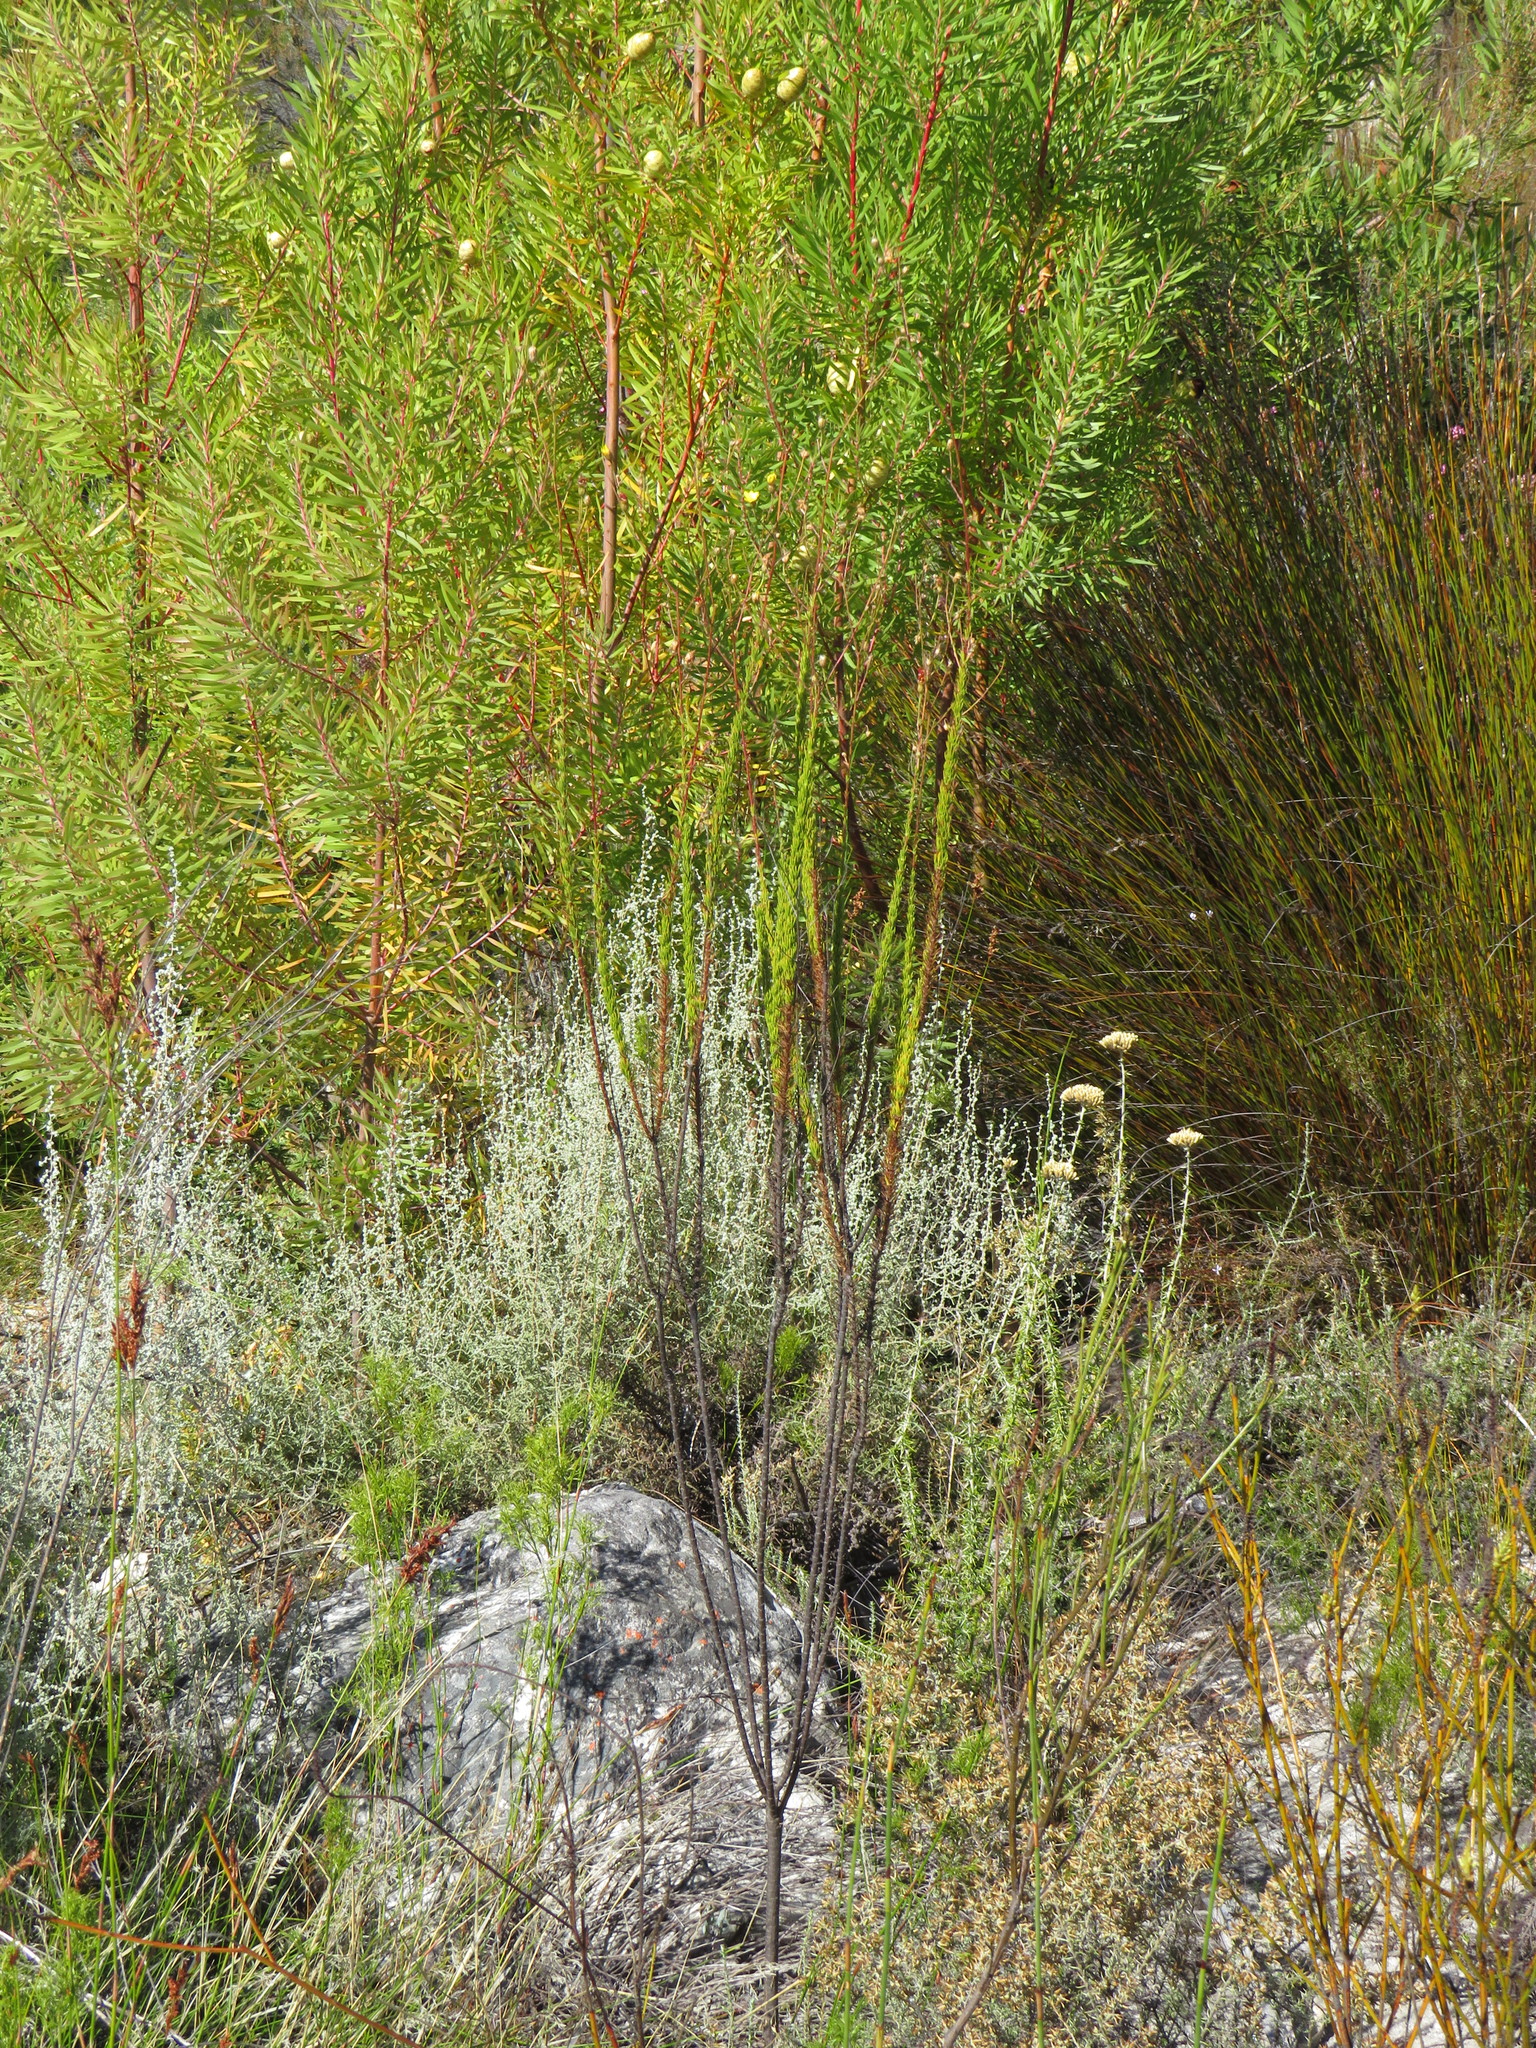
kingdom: Plantae
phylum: Tracheophyta
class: Magnoliopsida
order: Asterales
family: Asteraceae
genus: Ursinia
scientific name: Ursinia punctata
